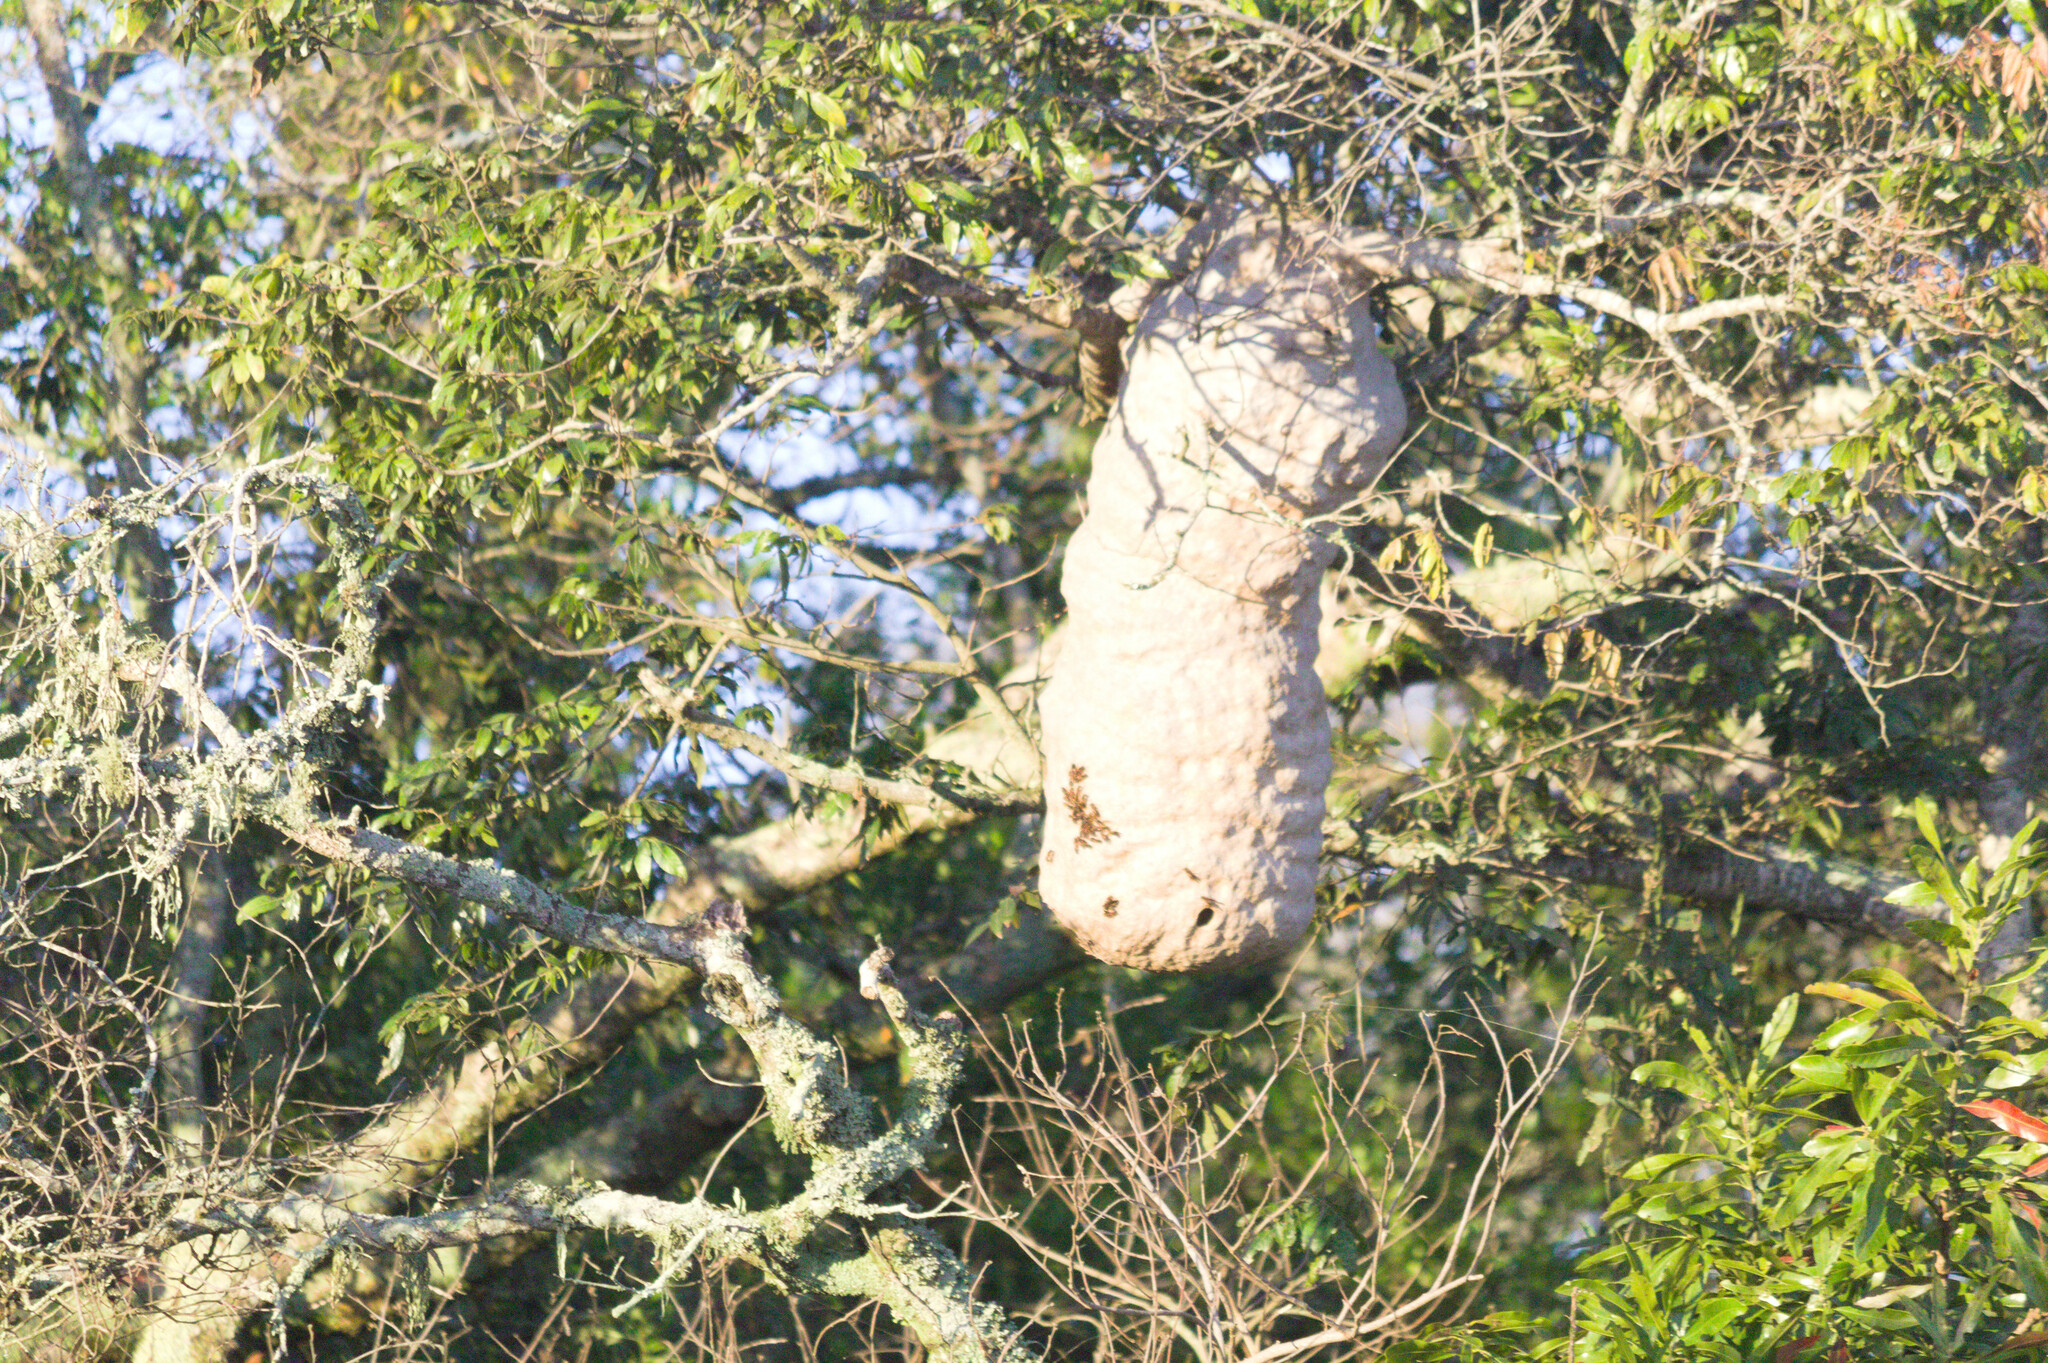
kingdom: Animalia
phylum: Arthropoda
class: Insecta
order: Hymenoptera
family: Eumenidae
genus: Polybia
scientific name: Polybia sericea
